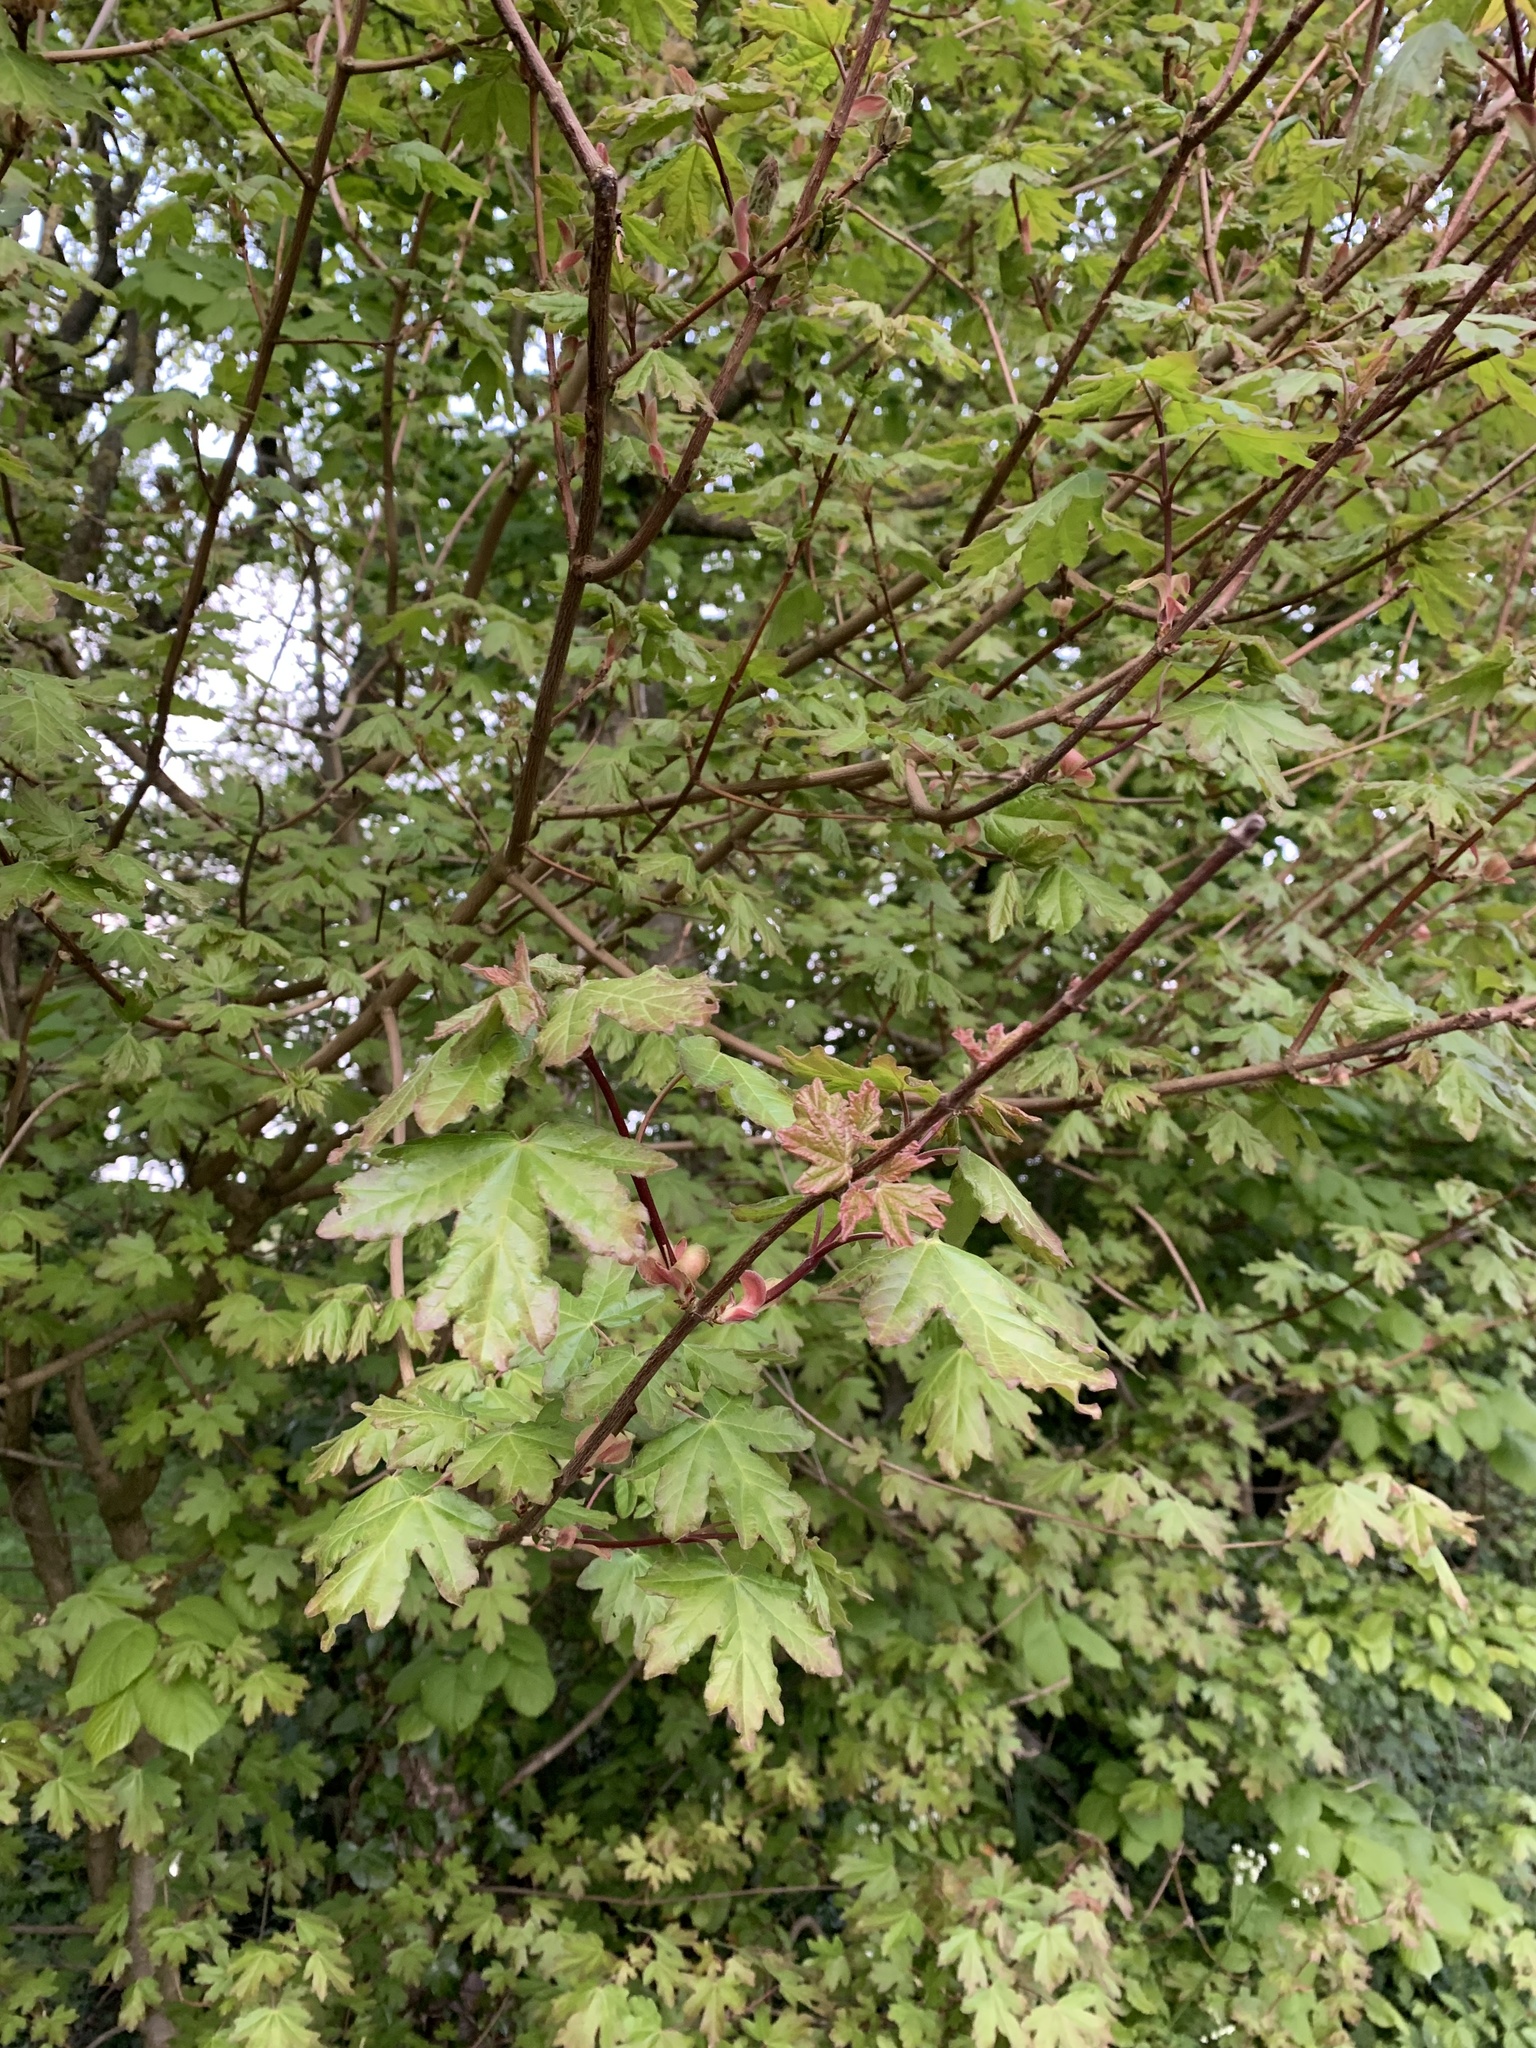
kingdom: Plantae
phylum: Tracheophyta
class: Magnoliopsida
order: Sapindales
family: Sapindaceae
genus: Acer
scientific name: Acer campestre
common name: Field maple
